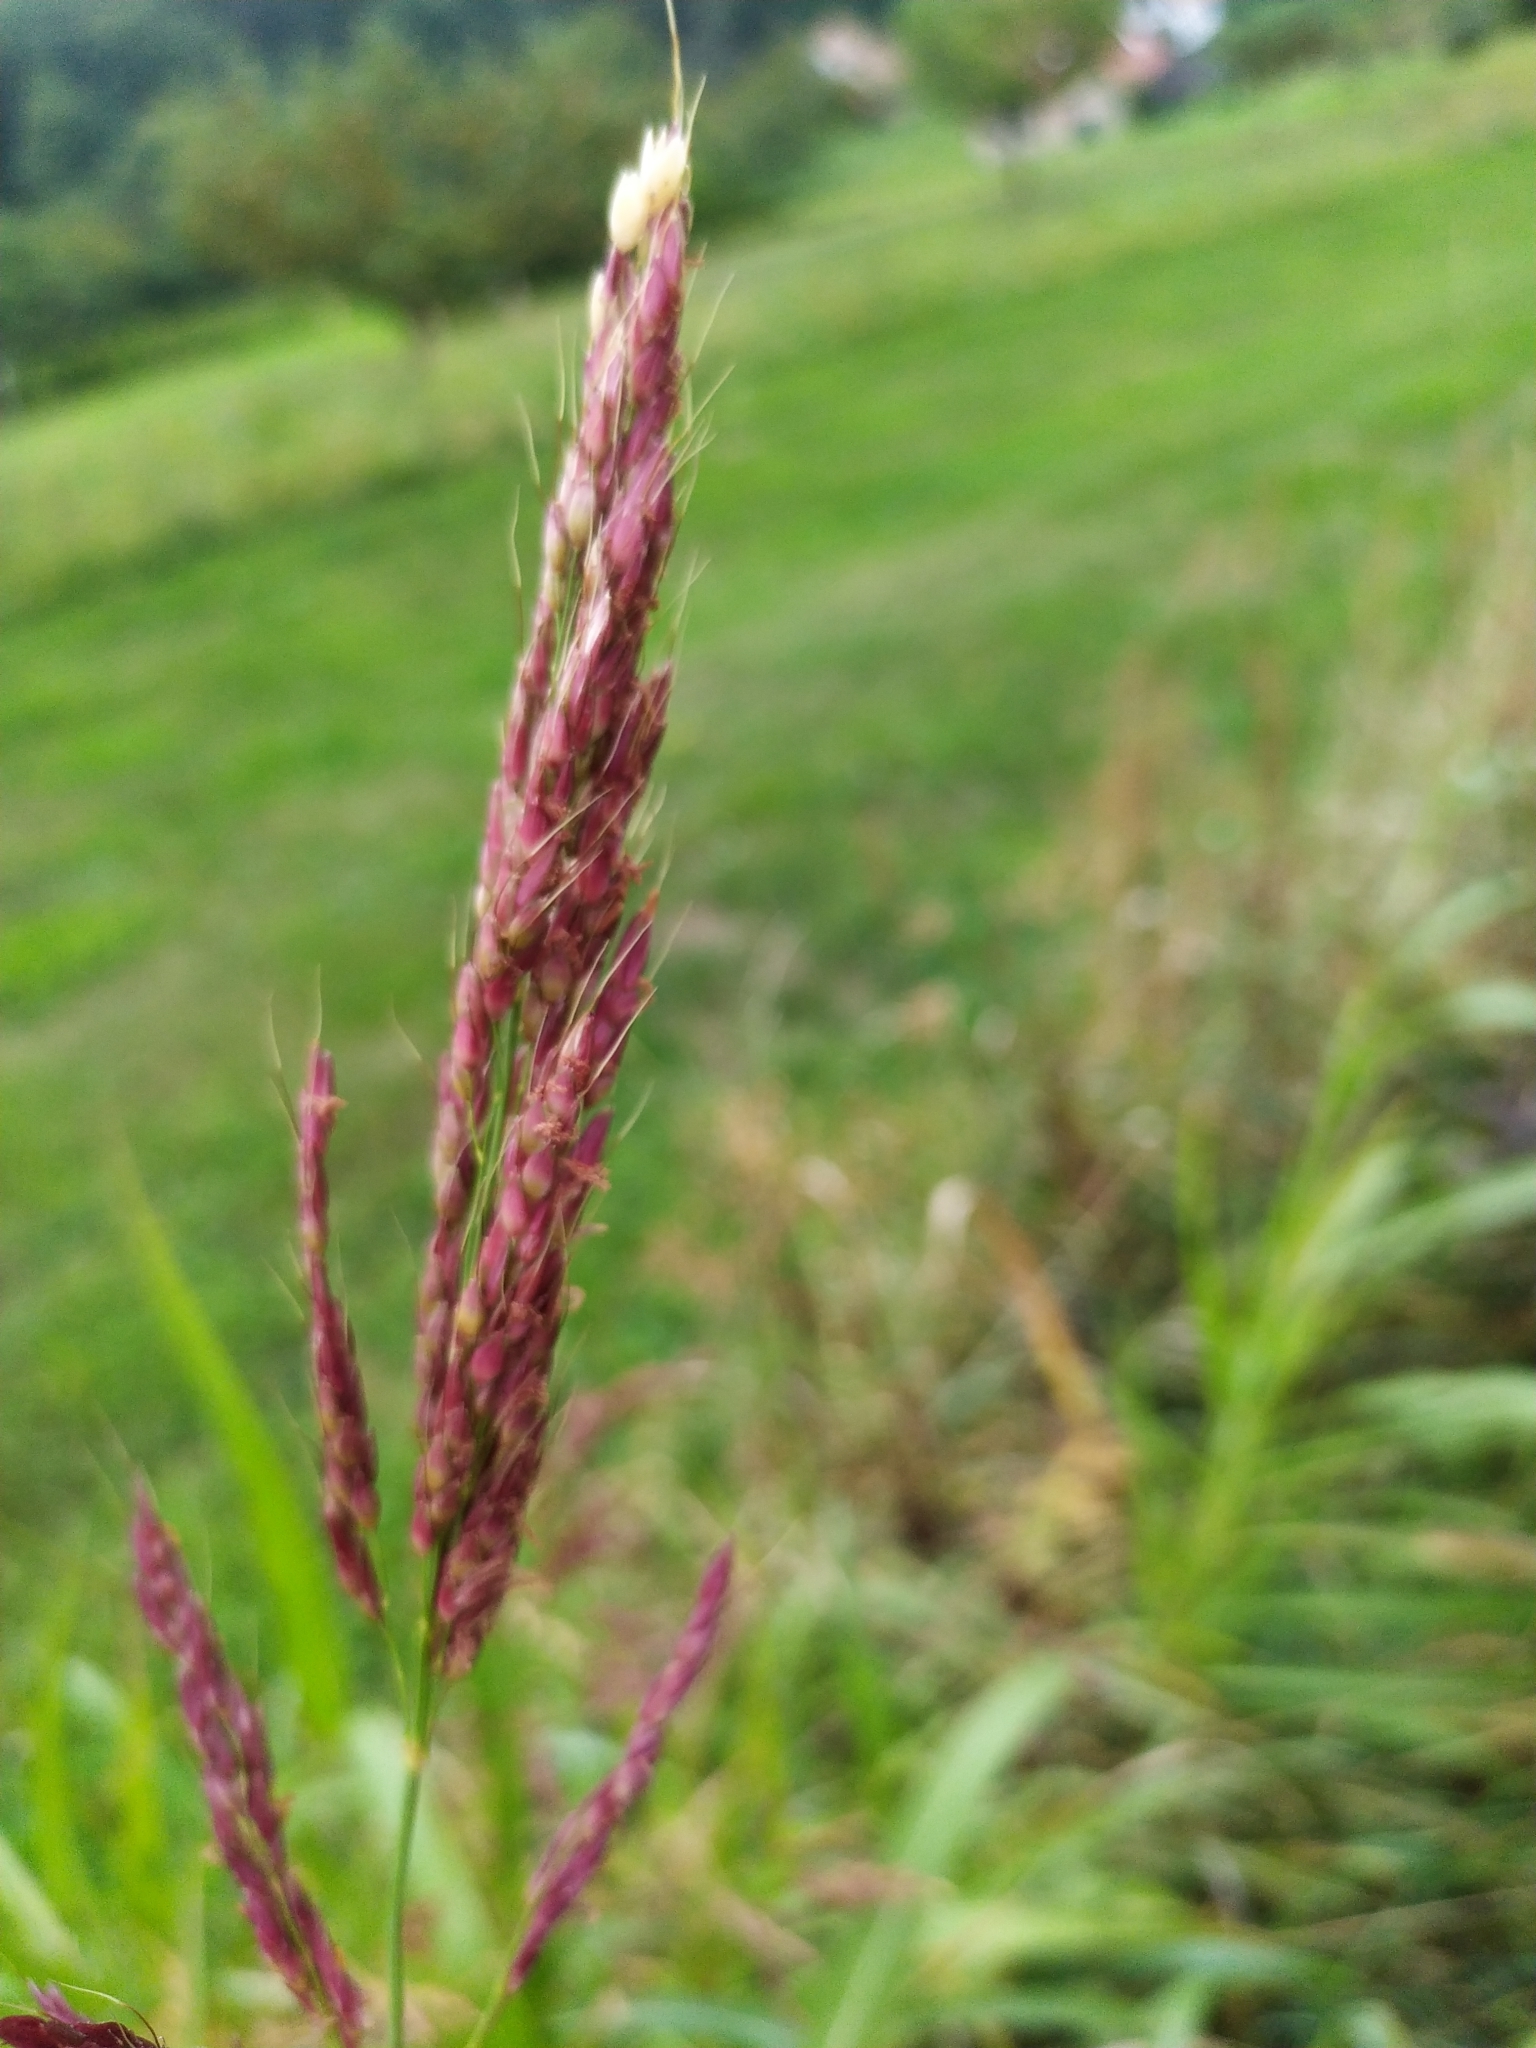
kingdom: Plantae
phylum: Tracheophyta
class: Liliopsida
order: Poales
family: Poaceae
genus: Sorghum
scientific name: Sorghum halepense
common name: Johnson-grass
